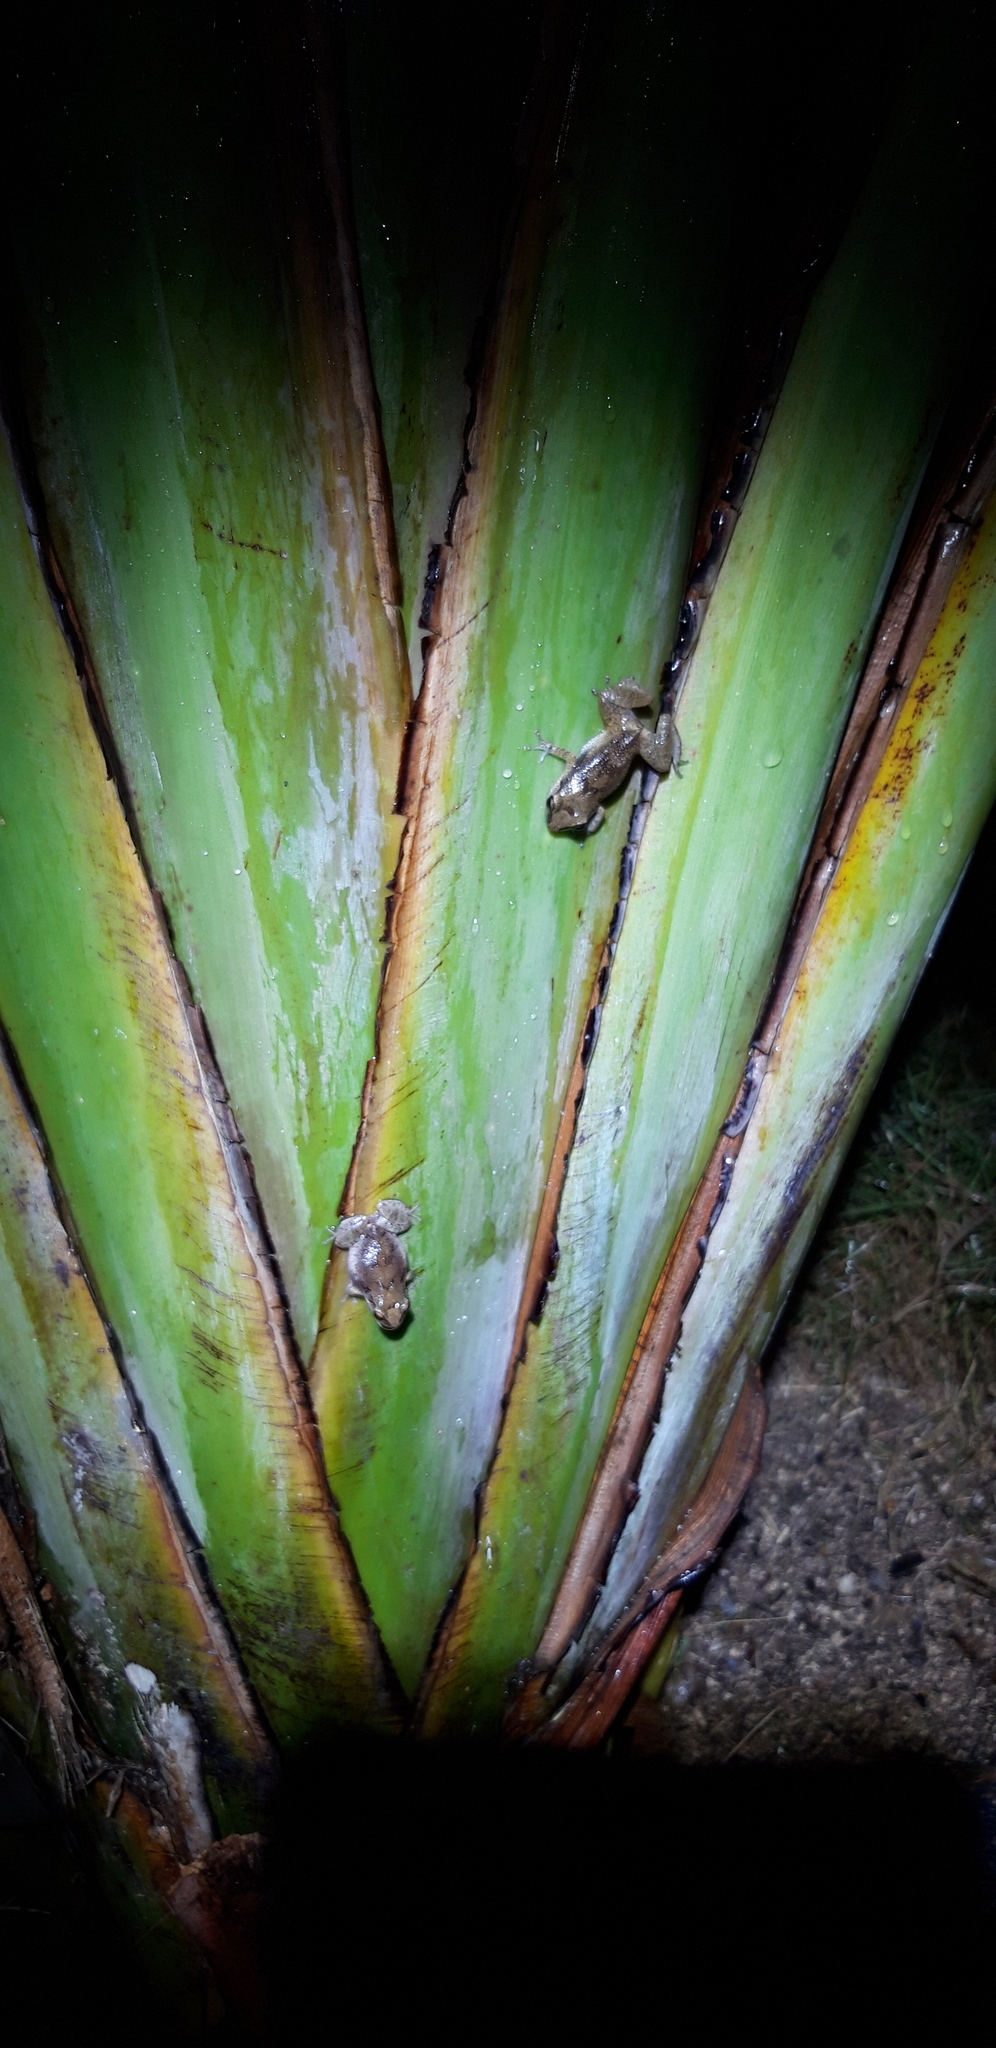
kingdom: Animalia
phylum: Chordata
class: Amphibia
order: Anura
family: Eleutherodactylidae
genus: Eleutherodactylus
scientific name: Eleutherodactylus montserratae
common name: Montserrat whistling frog
